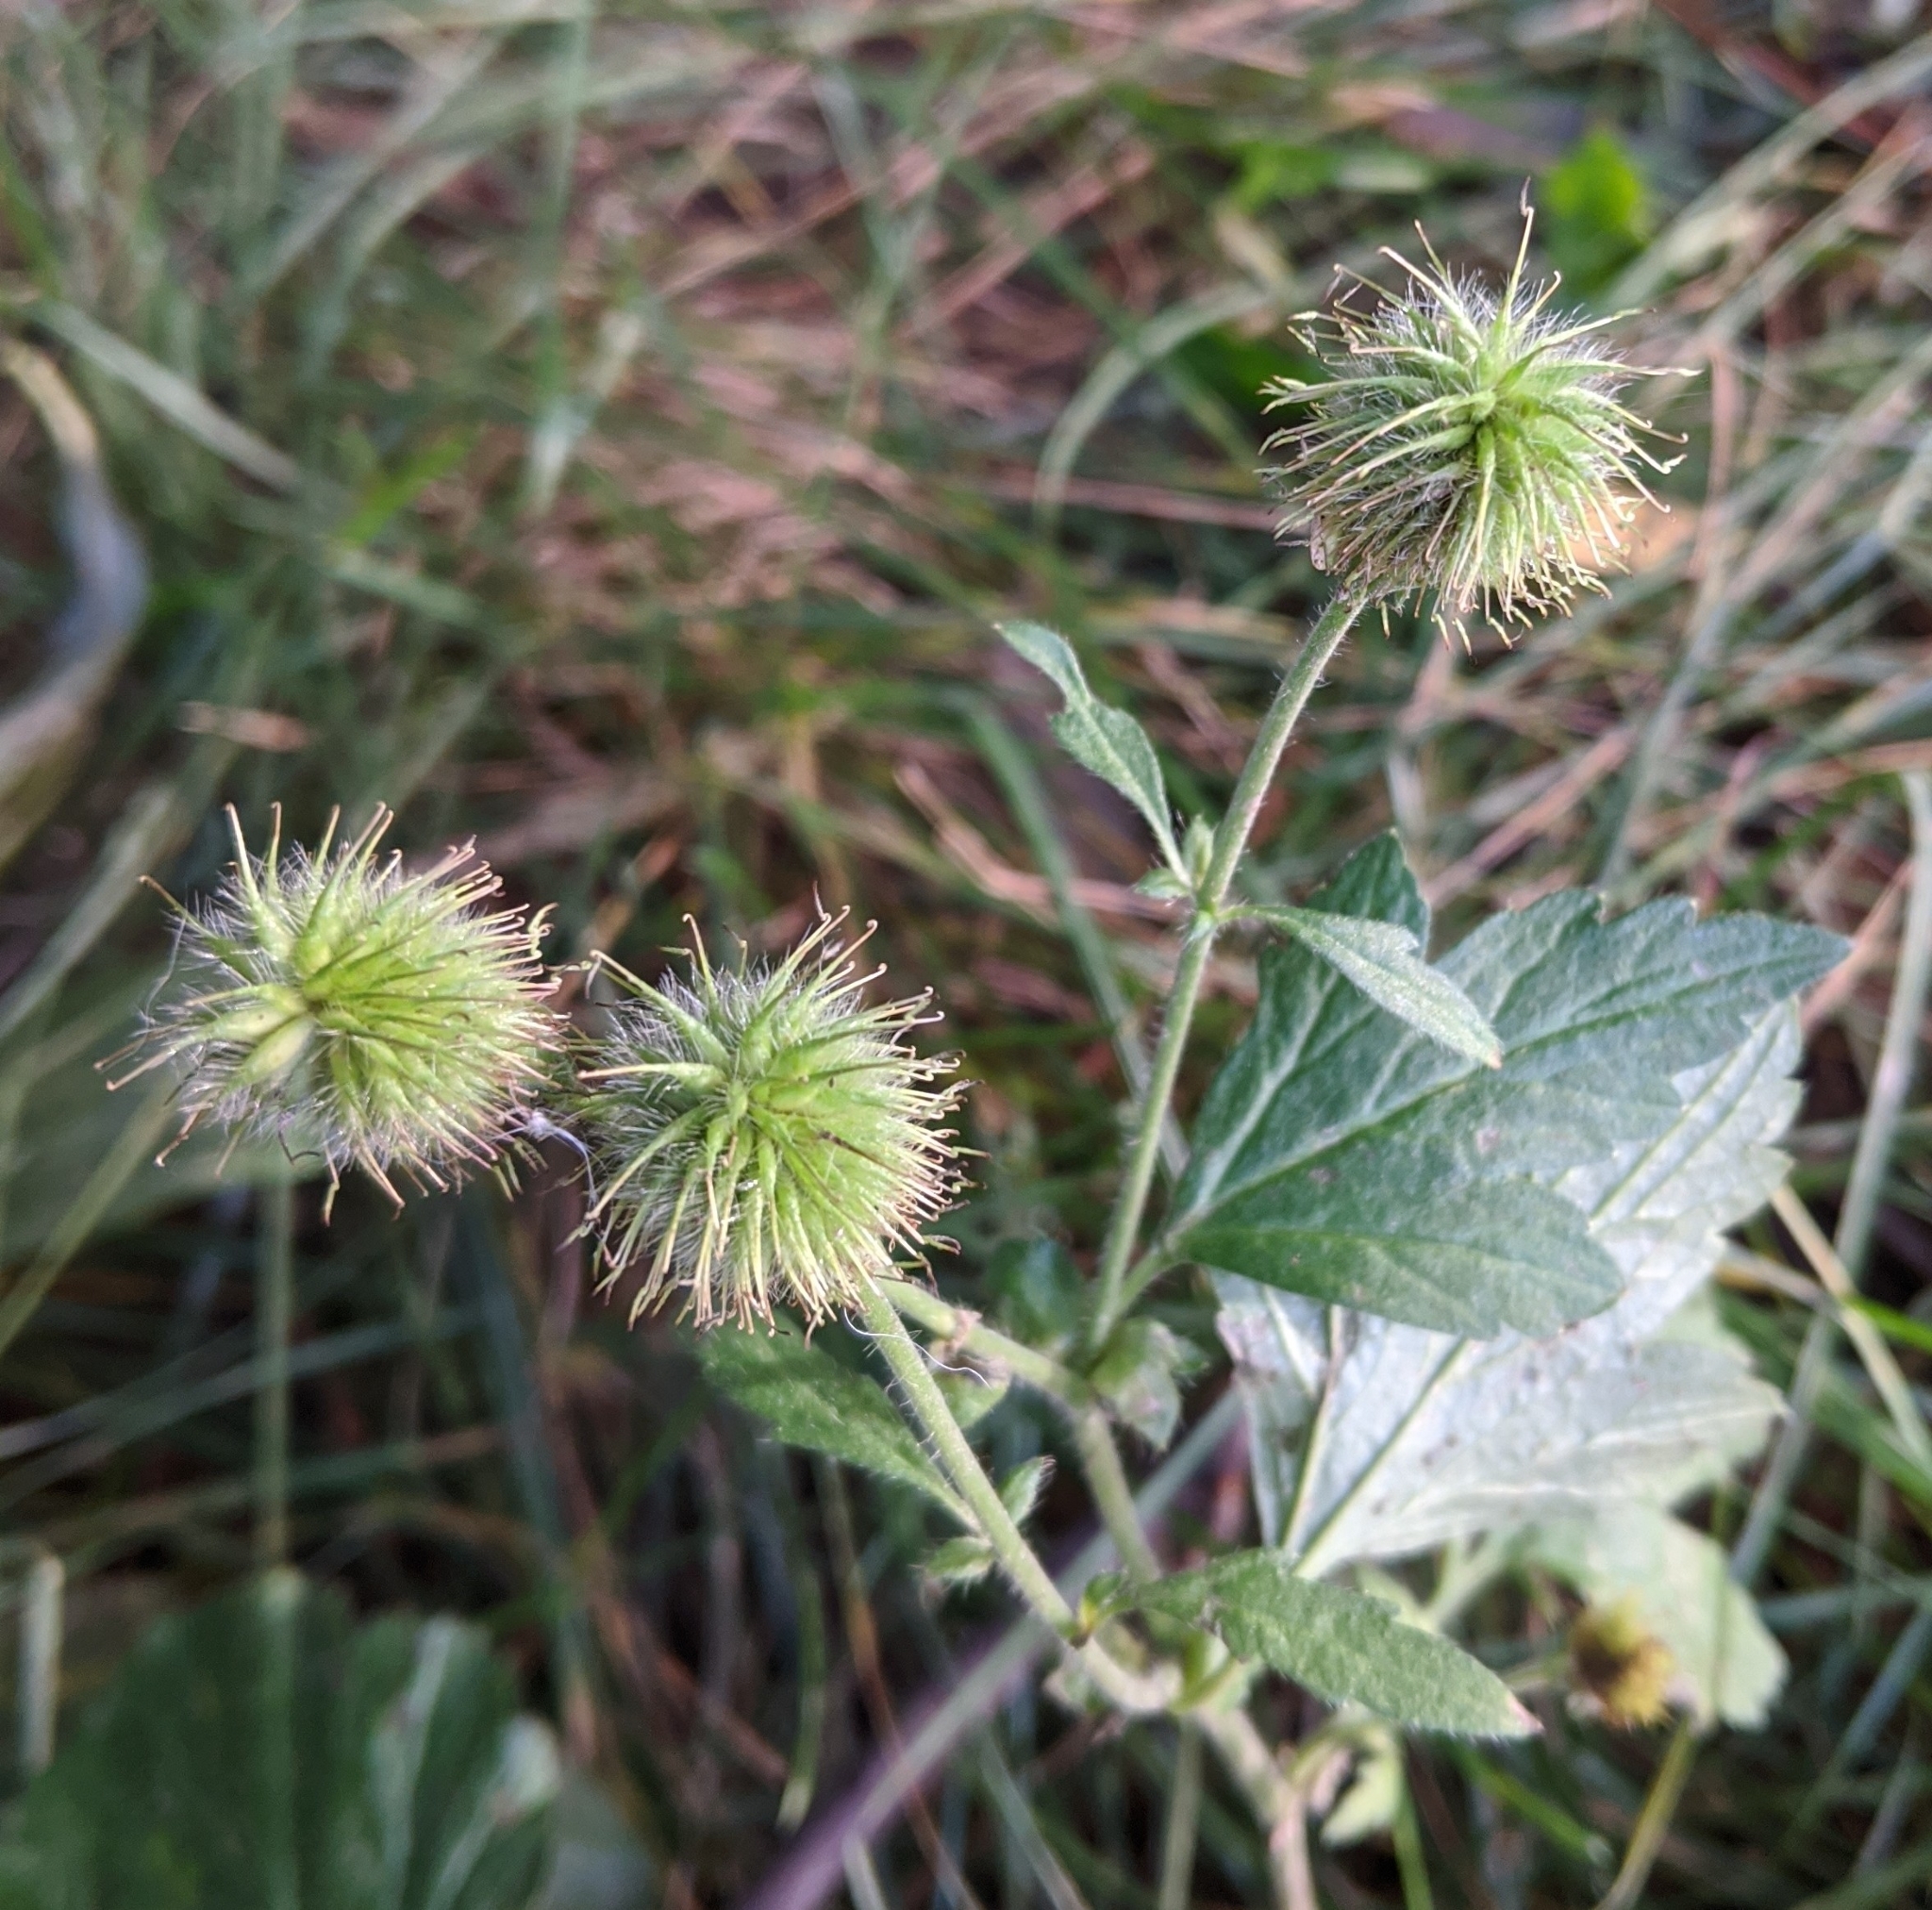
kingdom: Plantae
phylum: Tracheophyta
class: Magnoliopsida
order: Rosales
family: Rosaceae
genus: Geum
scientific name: Geum aleppicum
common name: Yellow avens
